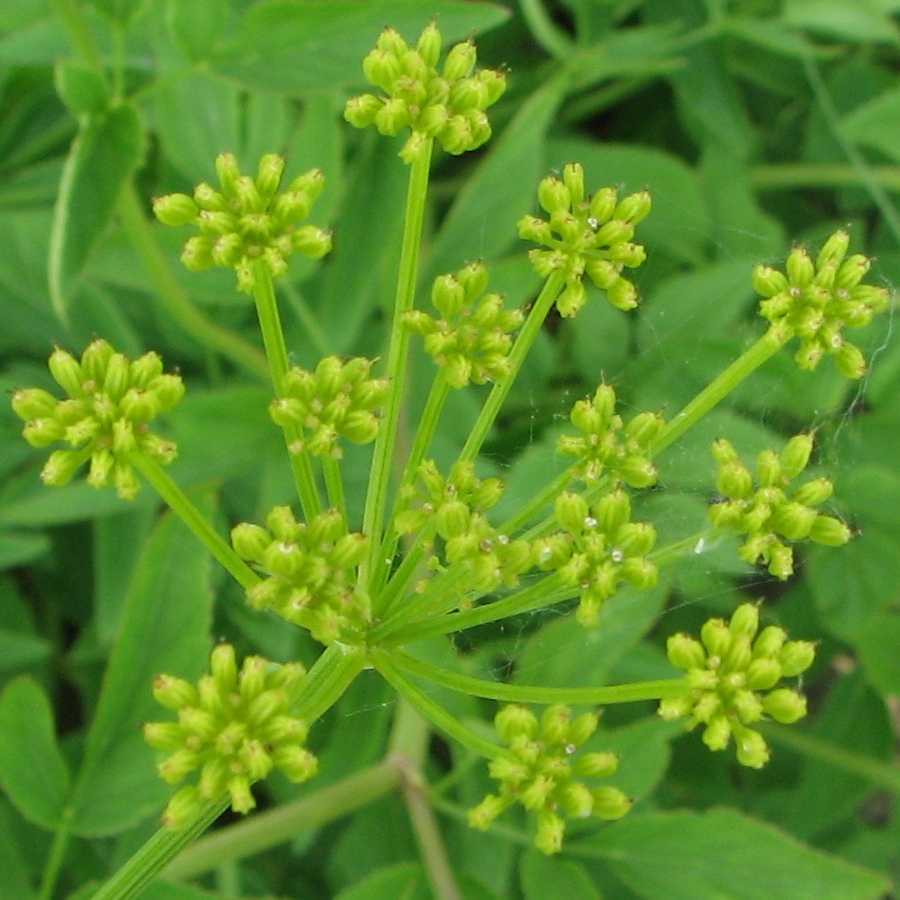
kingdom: Plantae
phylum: Tracheophyta
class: Magnoliopsida
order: Apiales
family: Apiaceae
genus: Zizia
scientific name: Zizia aurea
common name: Golden alexanders
